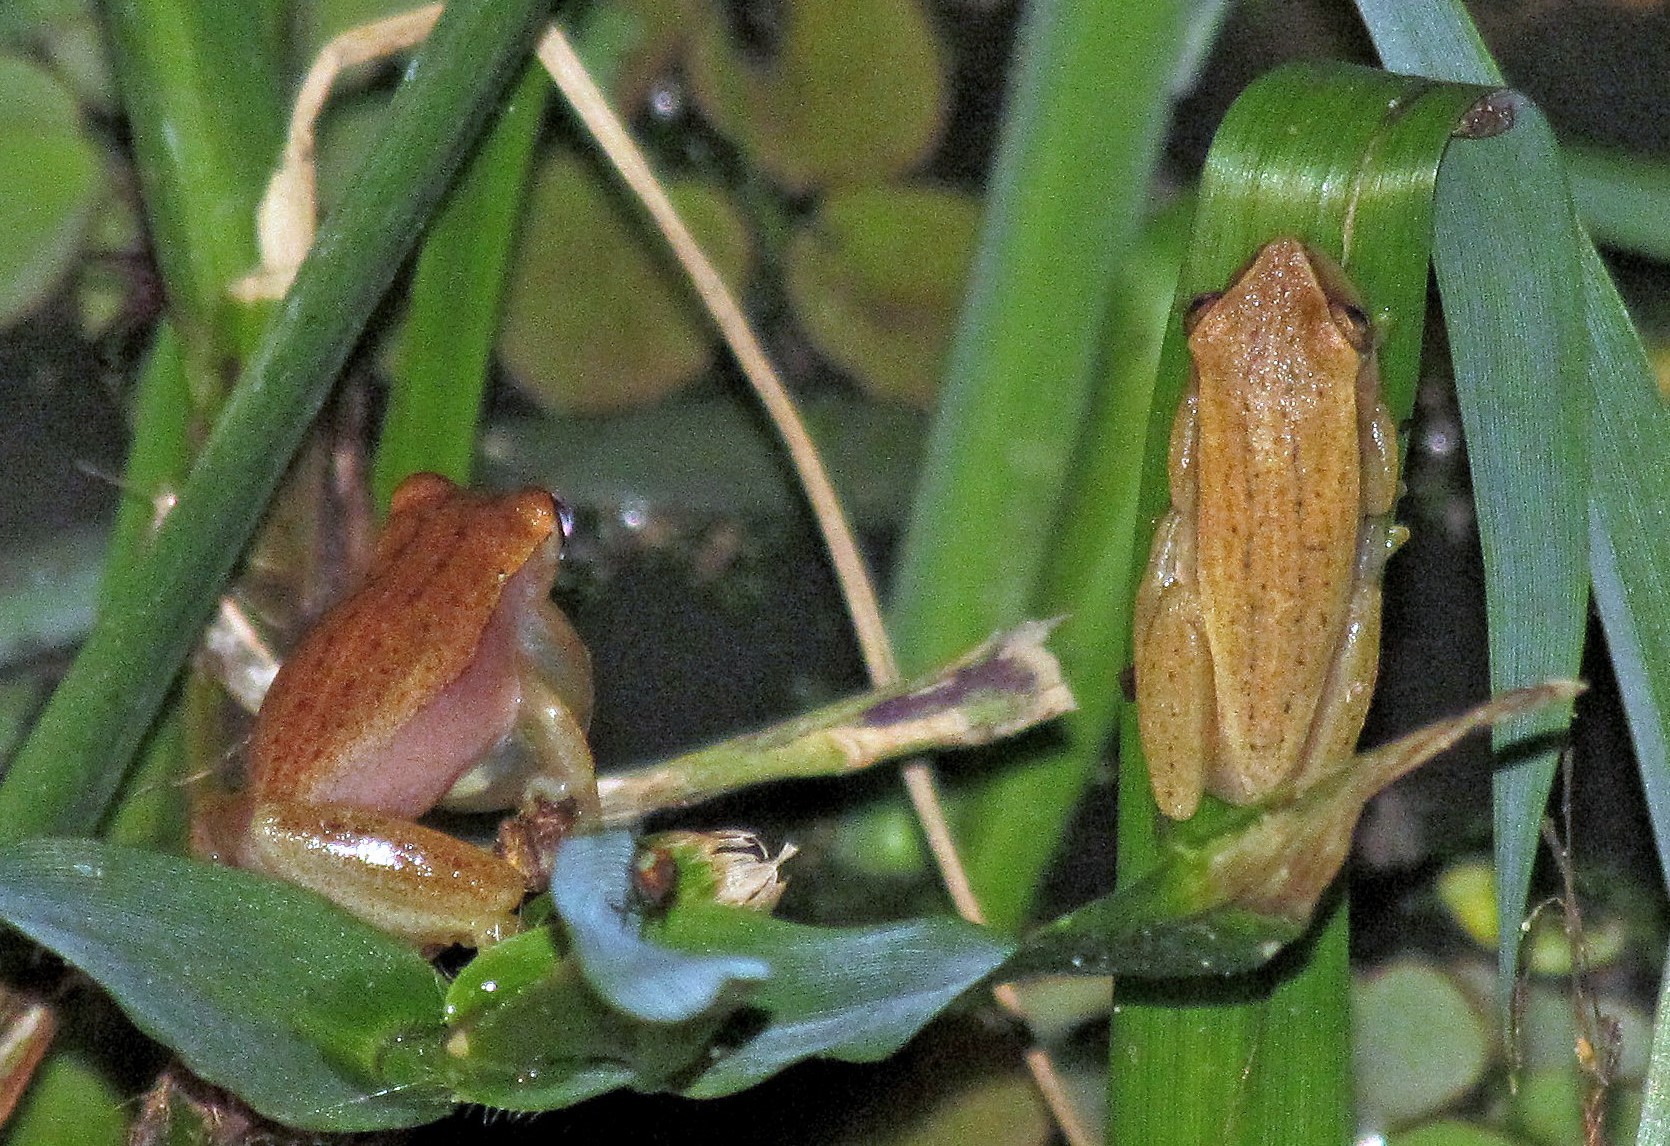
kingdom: Animalia
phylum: Chordata
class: Amphibia
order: Anura
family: Hylidae
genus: Dendropsophus
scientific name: Dendropsophus nanus
